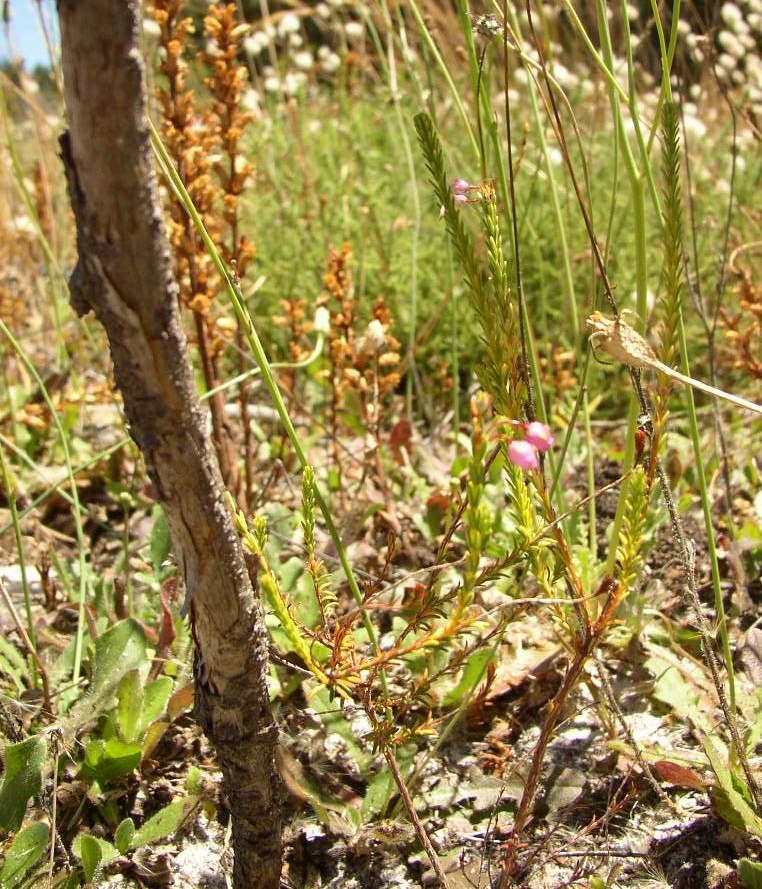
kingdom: Plantae
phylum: Tracheophyta
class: Magnoliopsida
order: Ericales
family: Ericaceae
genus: Erica
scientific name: Erica ferrea
